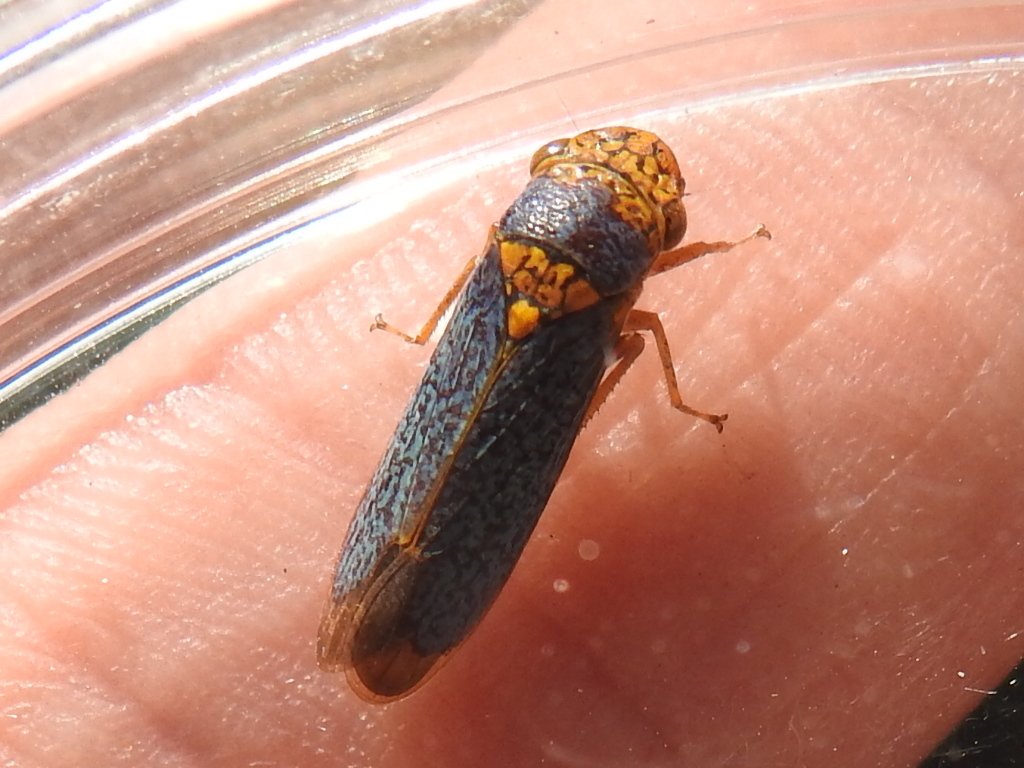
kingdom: Animalia
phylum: Arthropoda
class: Insecta
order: Hemiptera
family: Cicadellidae
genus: Oncometopia
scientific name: Oncometopia orbona
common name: Broad-headed sharpshooter
